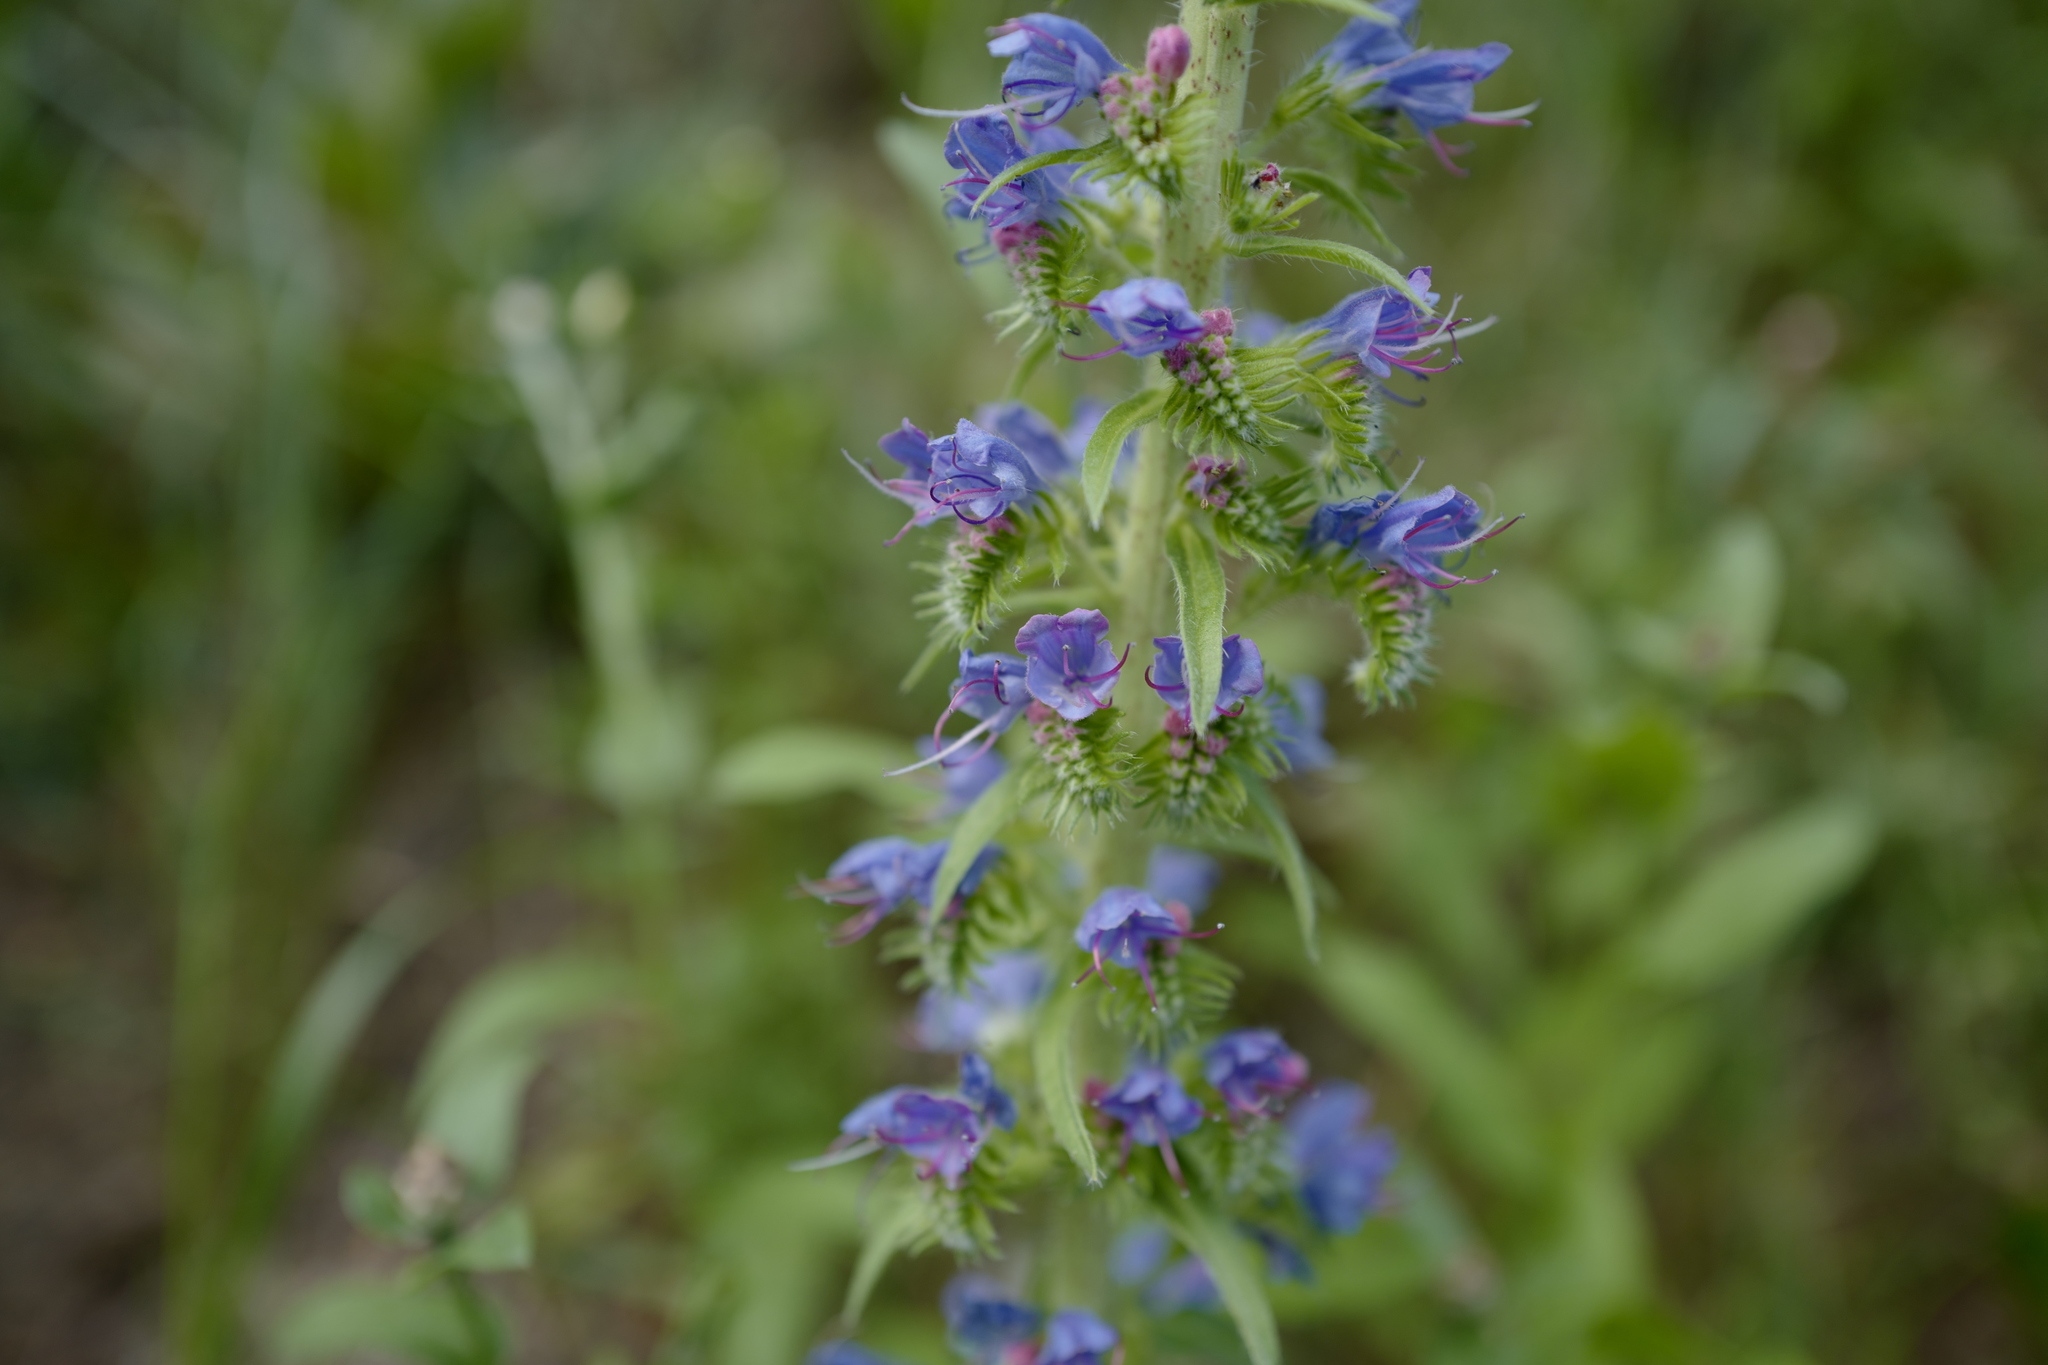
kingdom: Plantae
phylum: Tracheophyta
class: Magnoliopsida
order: Boraginales
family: Boraginaceae
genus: Echium
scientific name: Echium vulgare
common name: Common viper's bugloss
